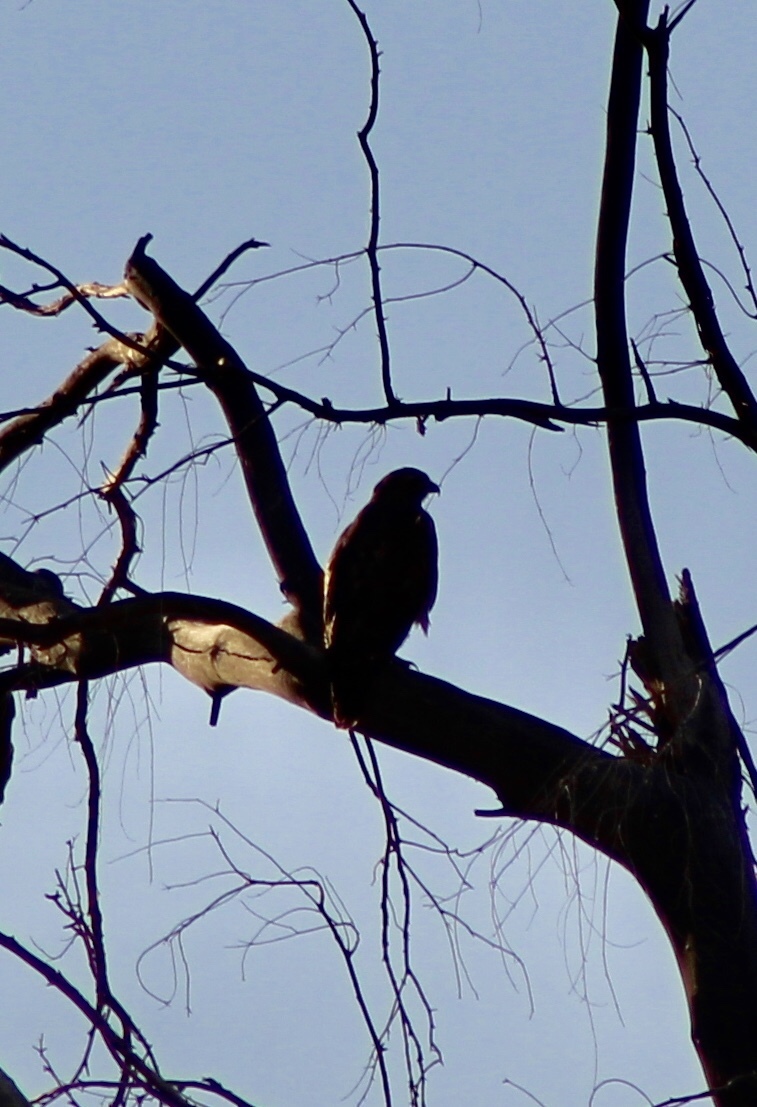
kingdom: Animalia
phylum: Chordata
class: Aves
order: Accipitriformes
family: Accipitridae
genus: Buteo
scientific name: Buteo jamaicensis
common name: Red-tailed hawk
